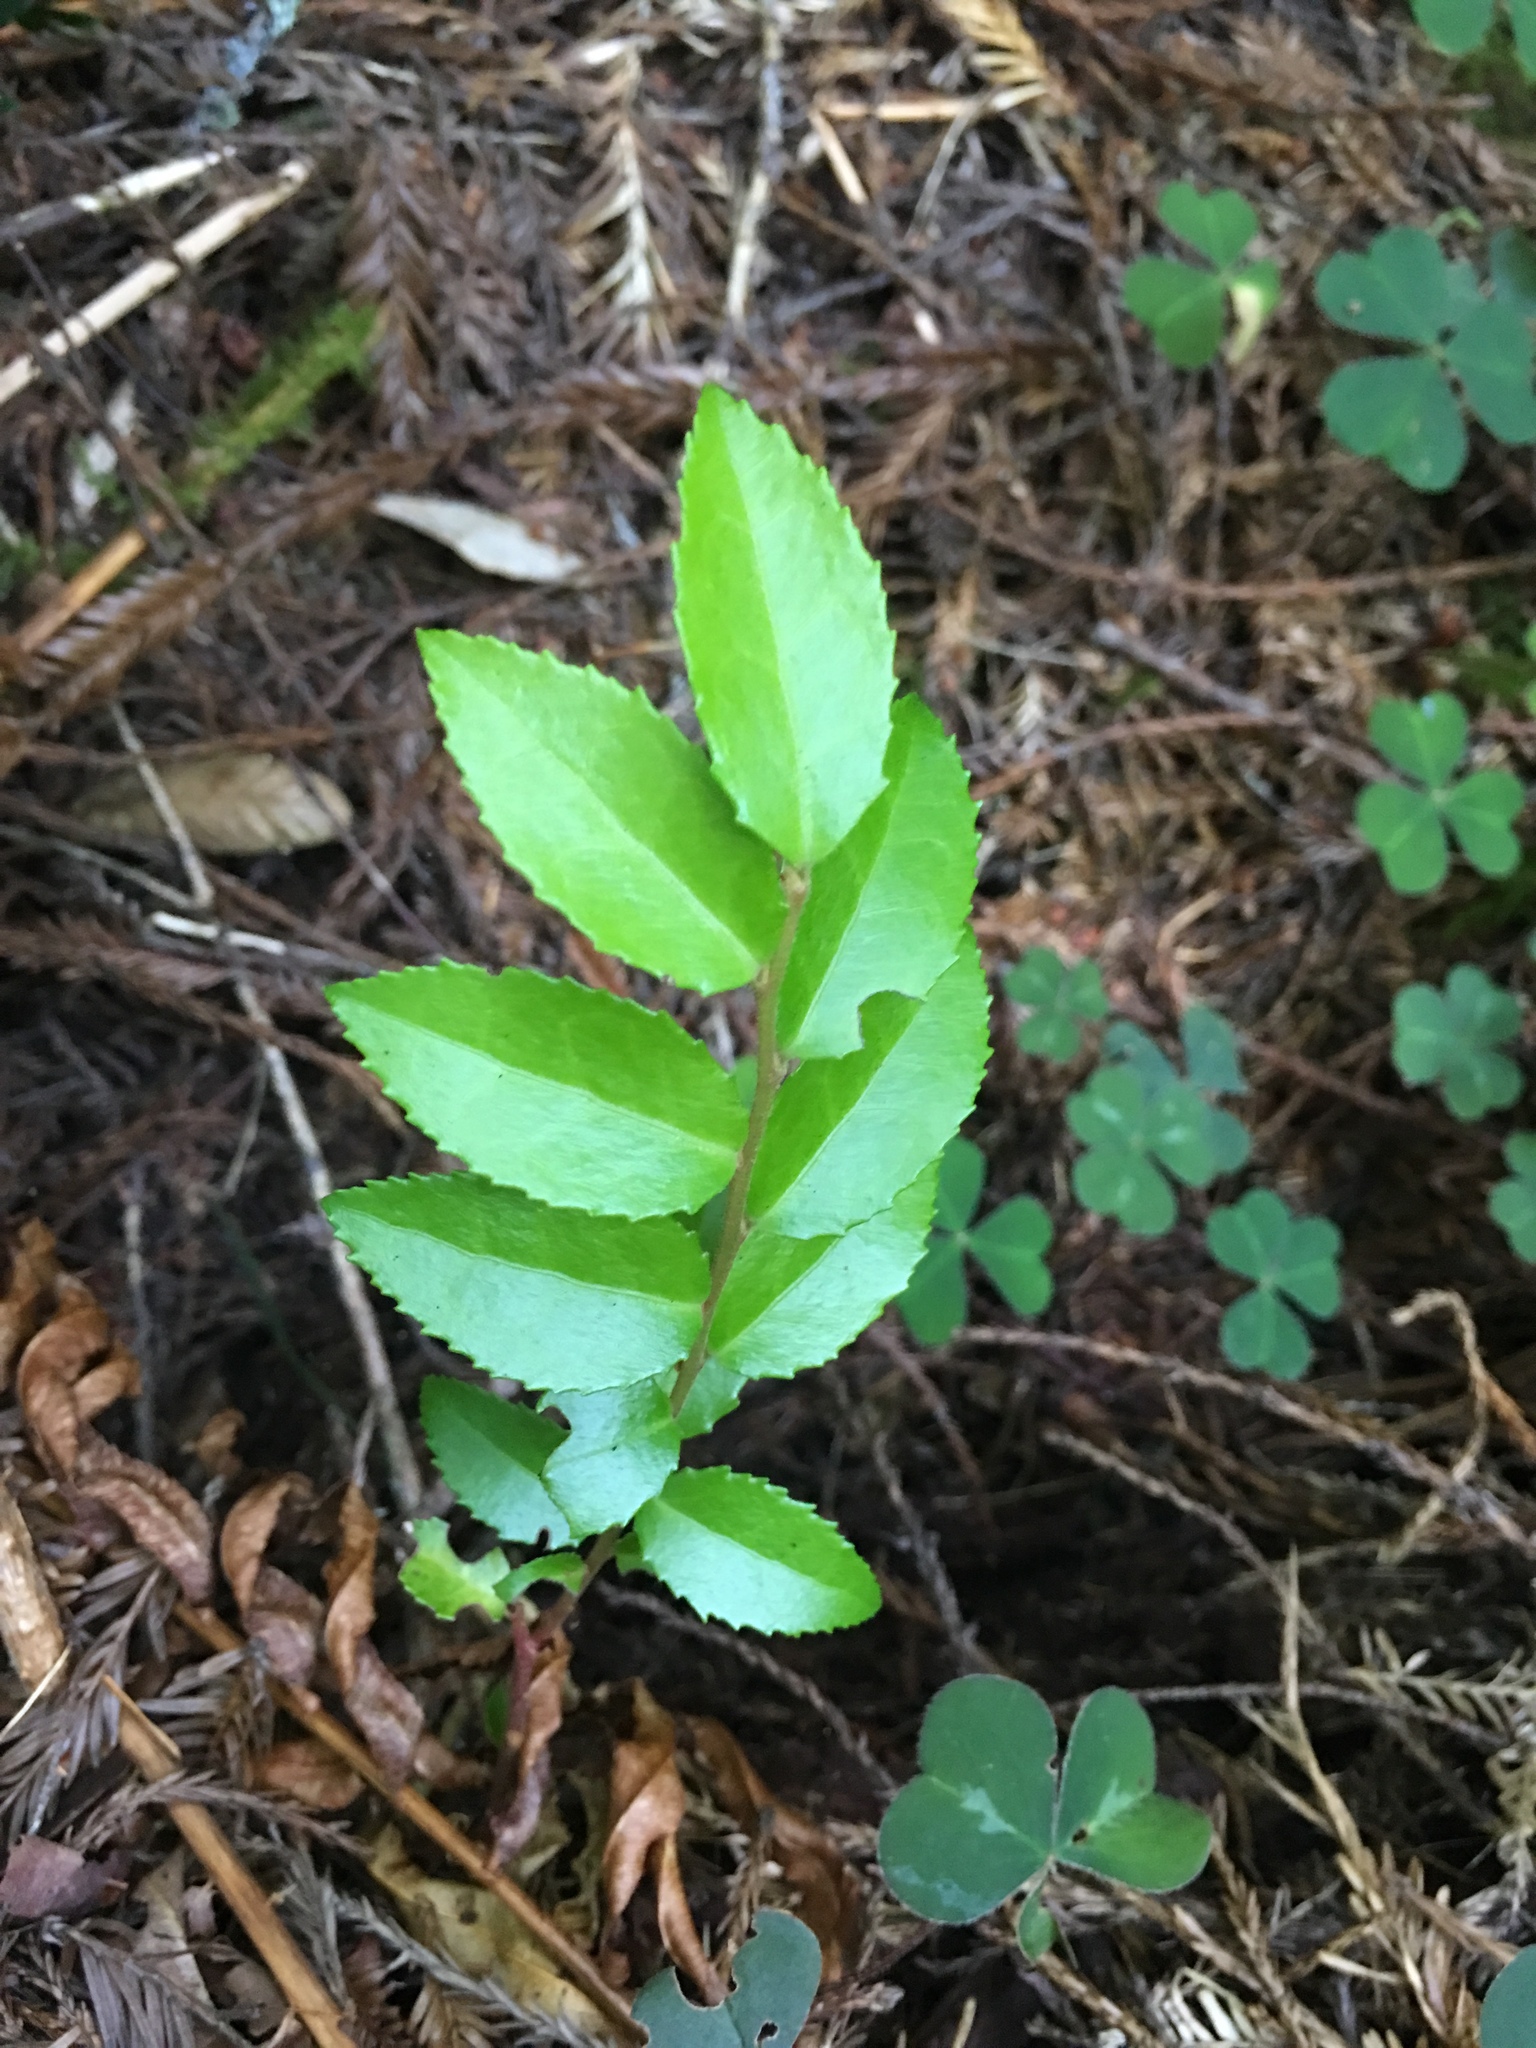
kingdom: Plantae
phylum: Tracheophyta
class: Magnoliopsida
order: Ericales
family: Ericaceae
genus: Vaccinium
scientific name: Vaccinium ovatum
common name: California-huckleberry
